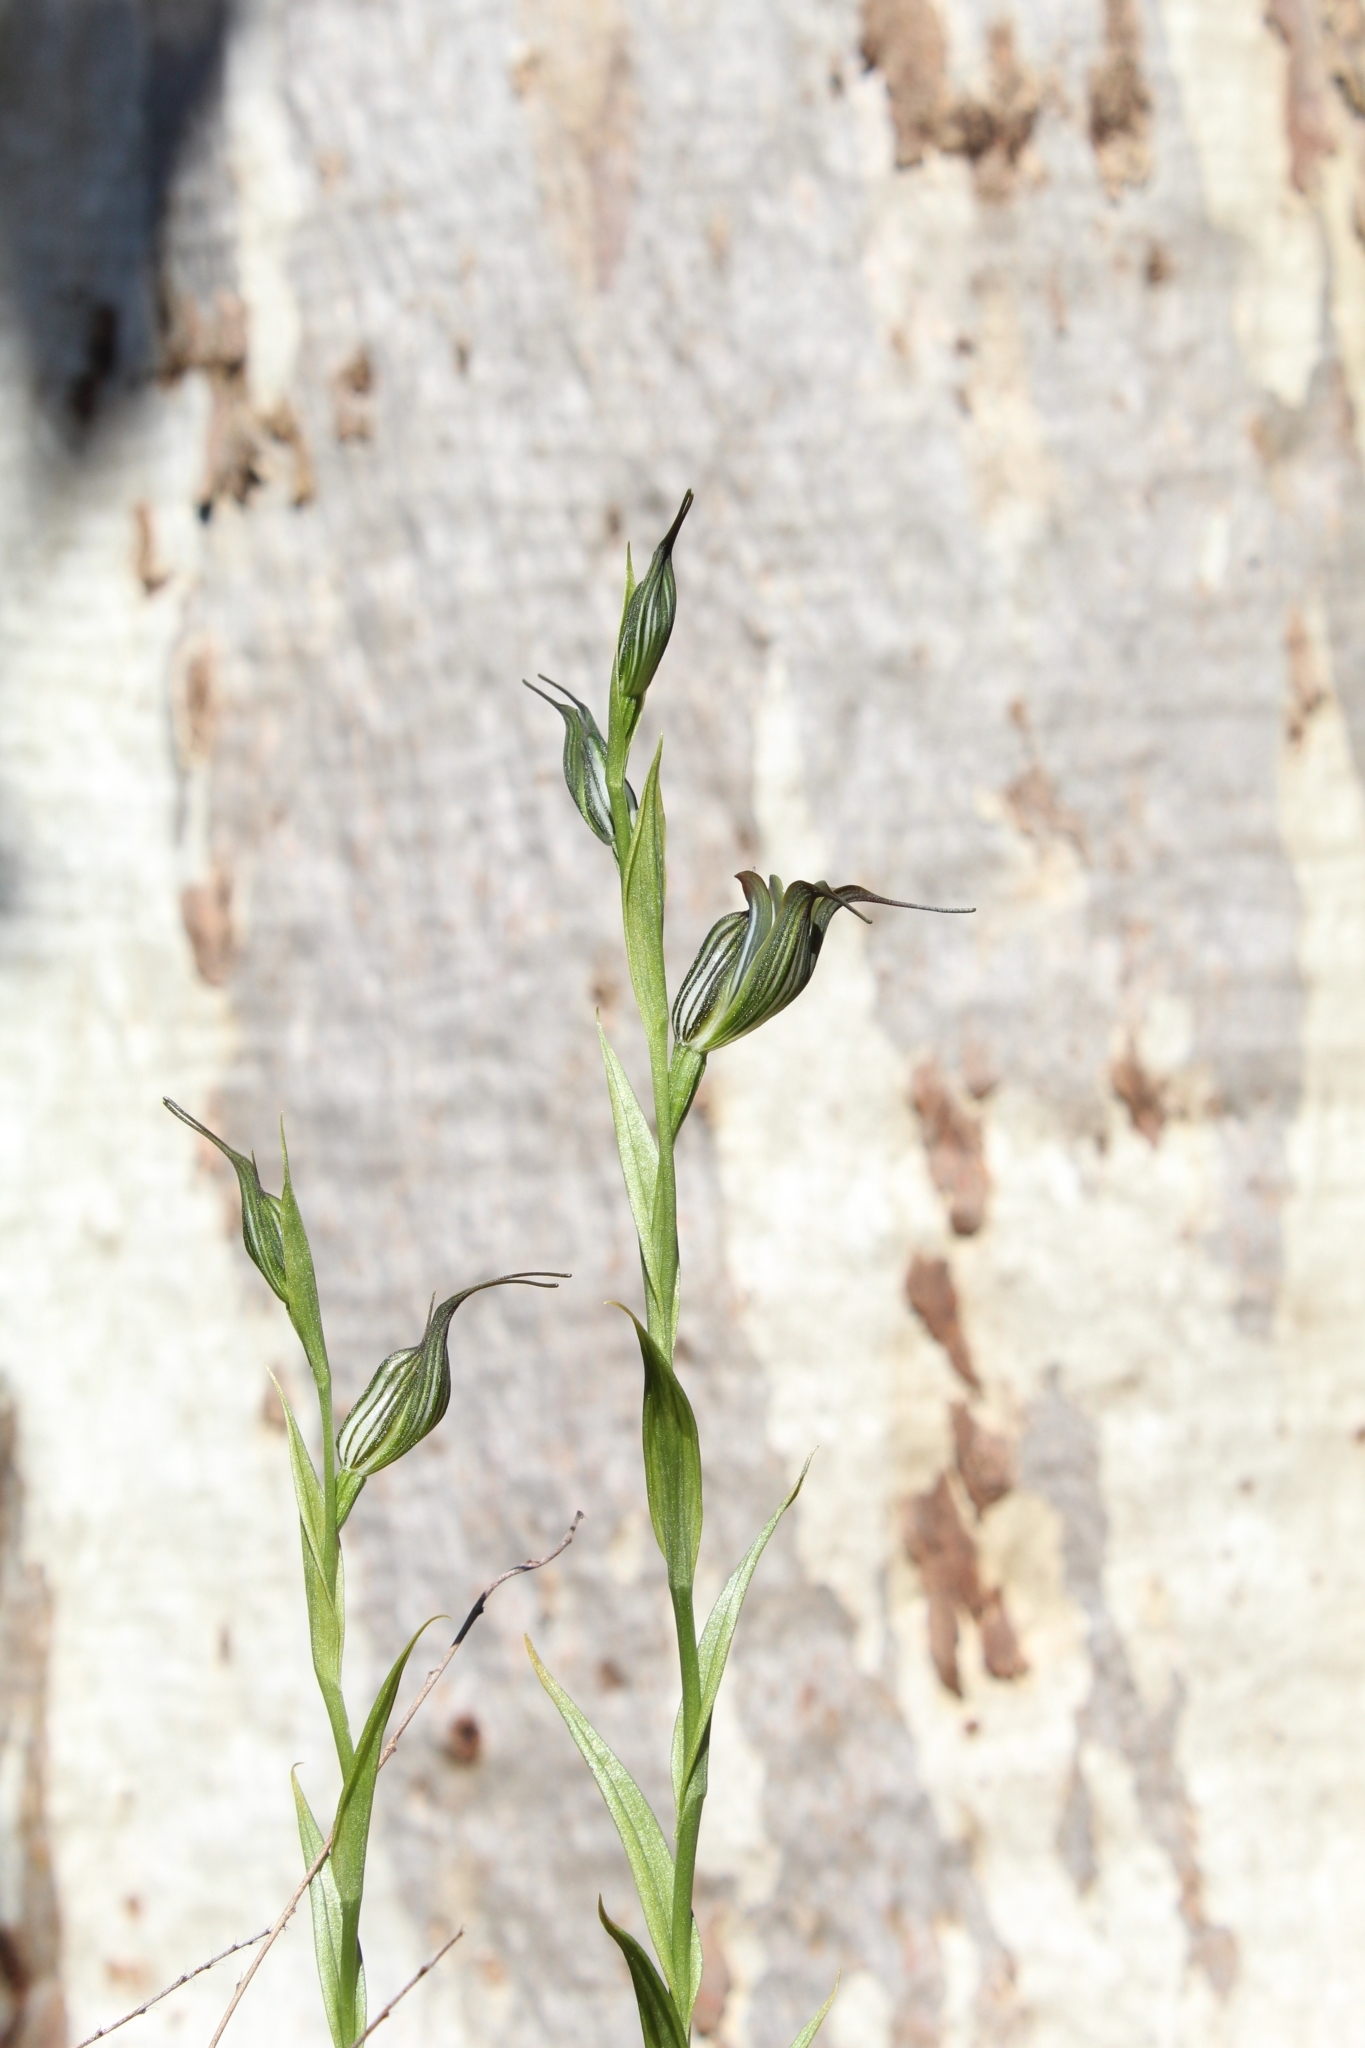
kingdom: Plantae
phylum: Tracheophyta
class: Liliopsida
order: Asparagales
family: Orchidaceae
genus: Pterostylis
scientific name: Pterostylis recurva
